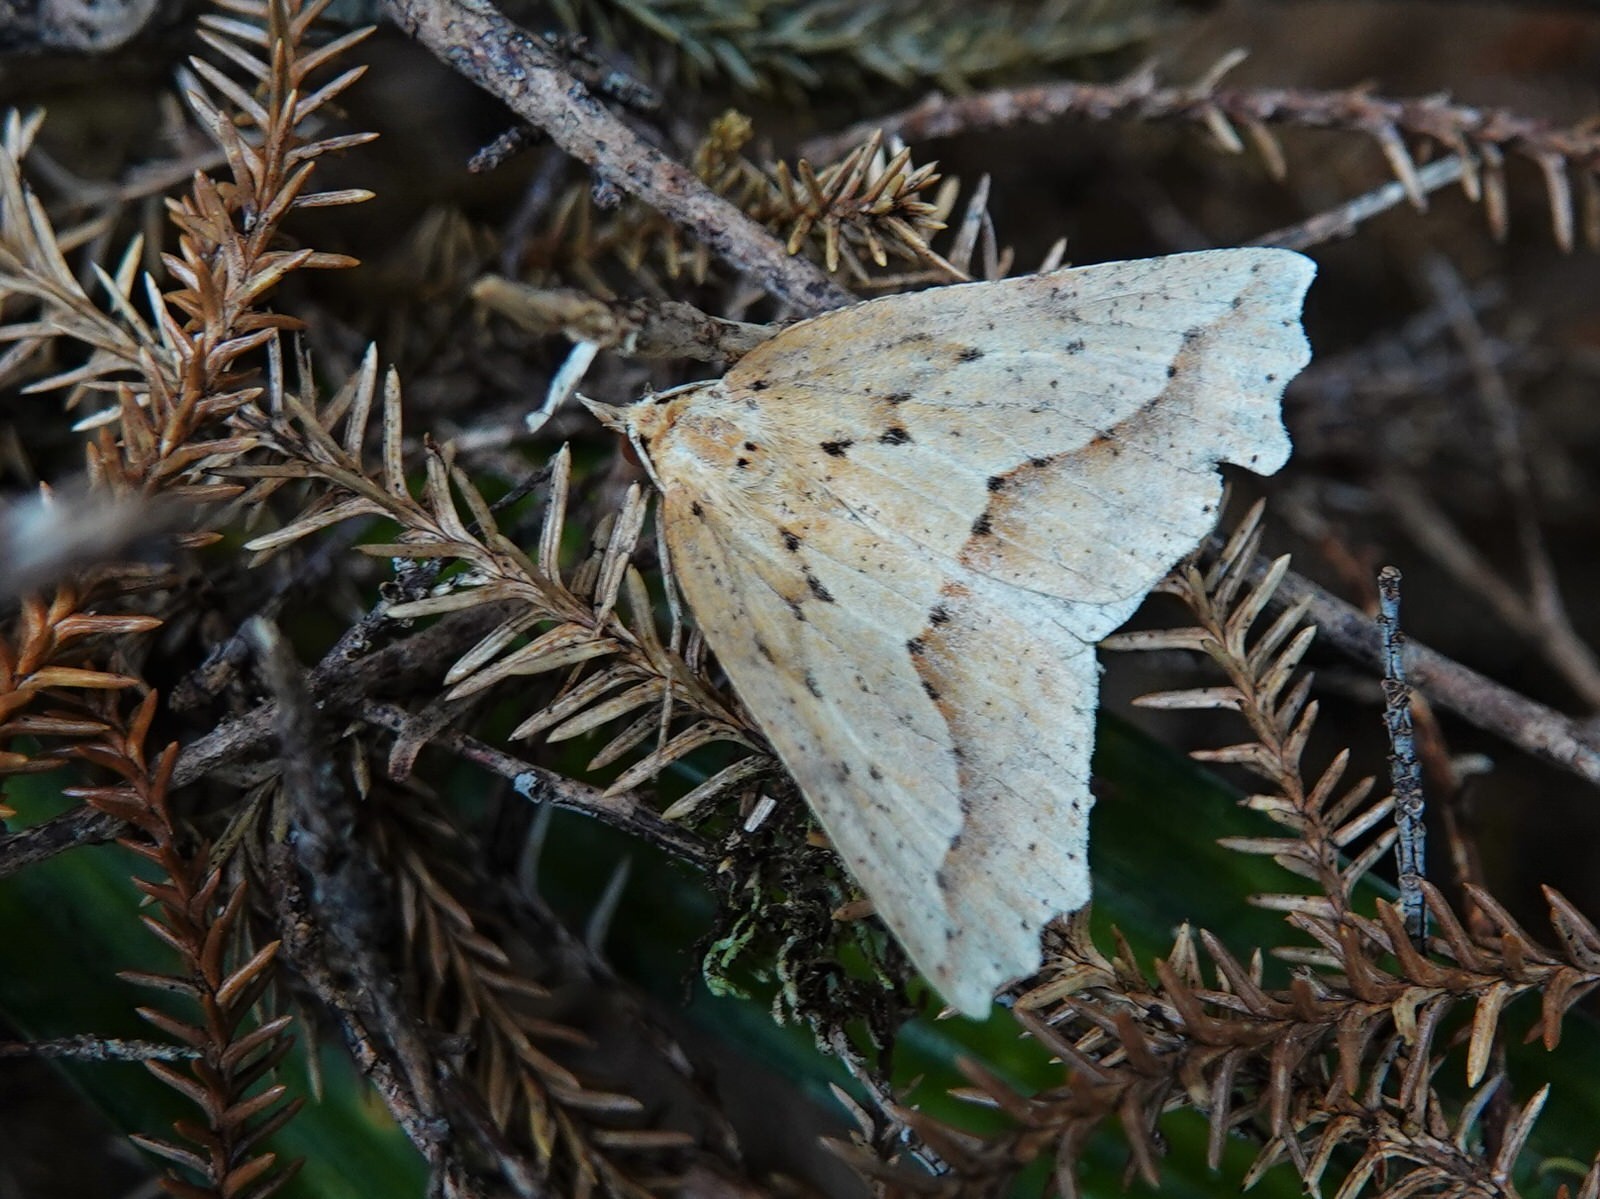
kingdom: Animalia
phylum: Arthropoda
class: Insecta
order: Lepidoptera
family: Geometridae
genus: Ischalis
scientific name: Ischalis variabilis
